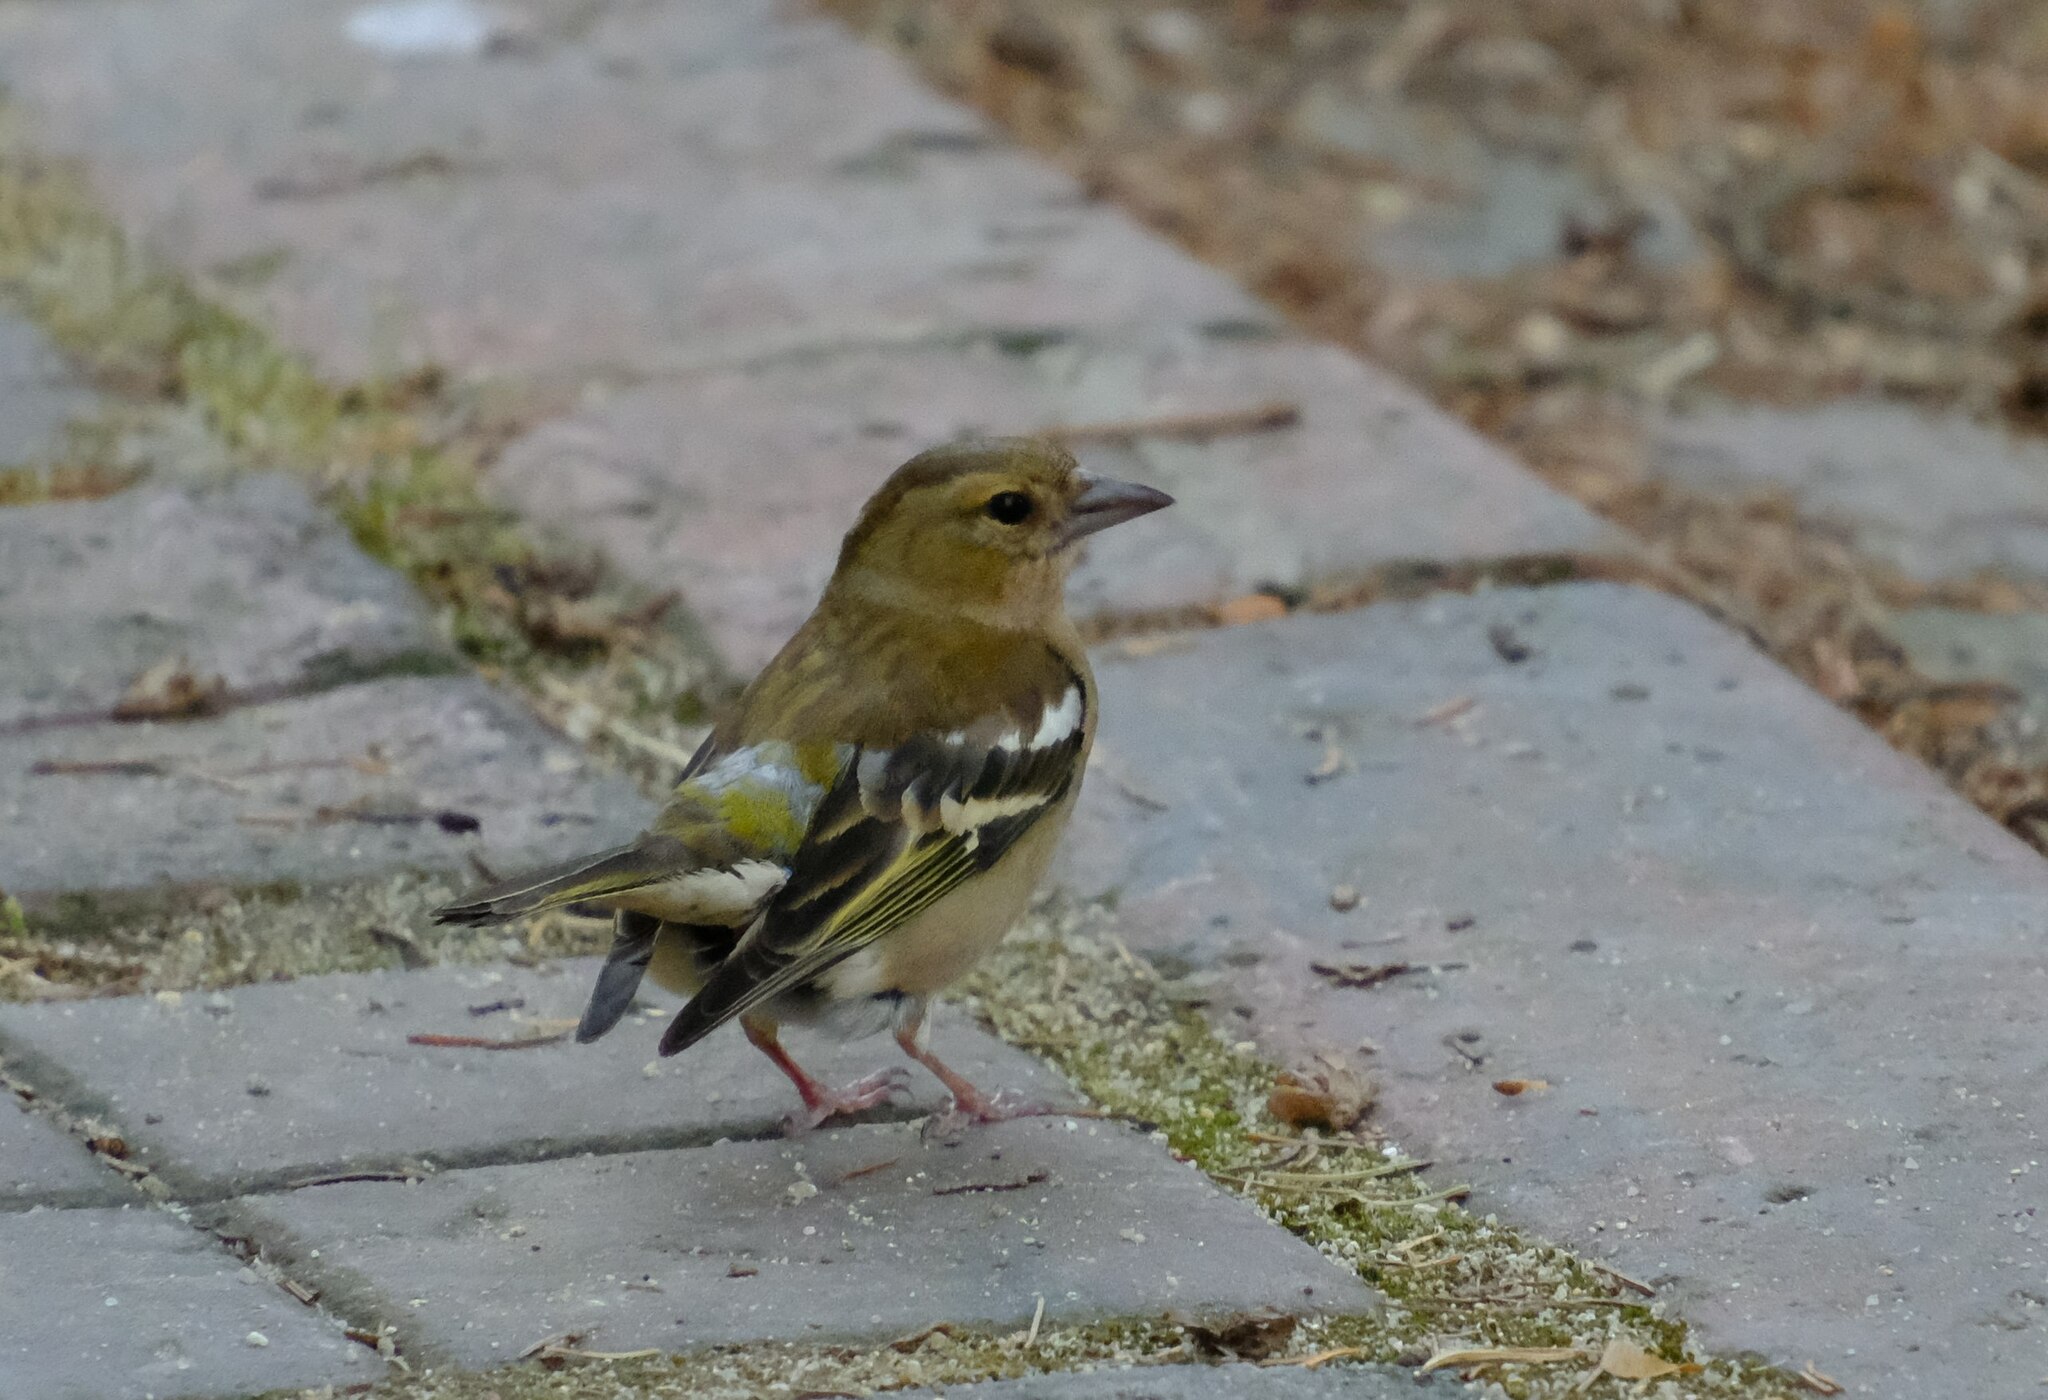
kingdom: Animalia
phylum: Chordata
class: Aves
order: Passeriformes
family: Fringillidae
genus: Fringilla
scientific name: Fringilla coelebs
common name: Common chaffinch
